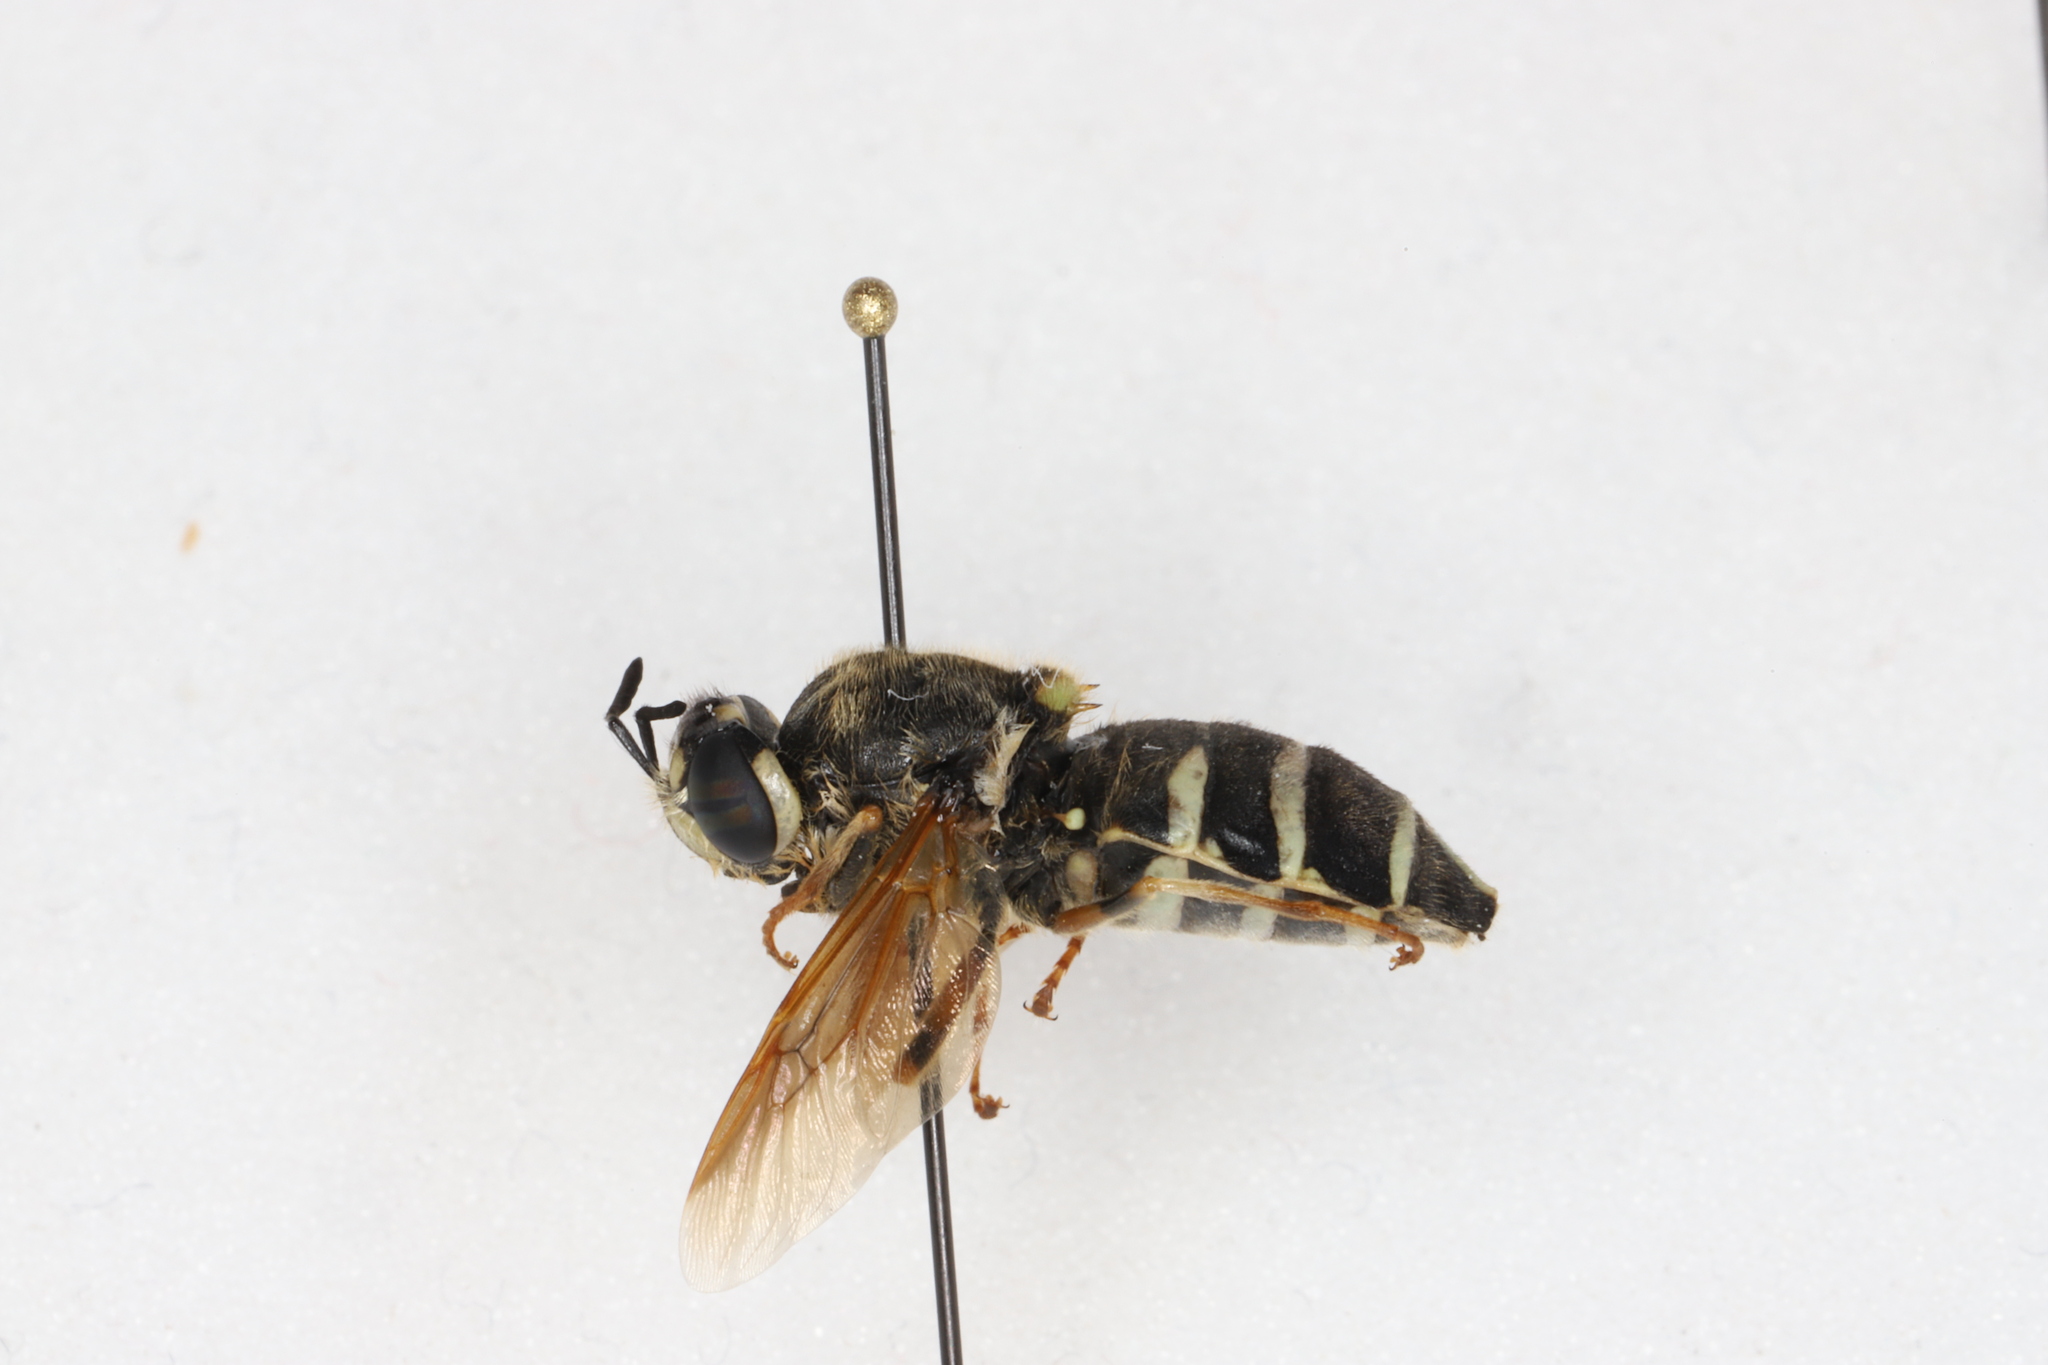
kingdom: Animalia
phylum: Arthropoda
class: Insecta
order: Diptera
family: Stratiomyidae
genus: Stratiomys
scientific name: Stratiomys badia
